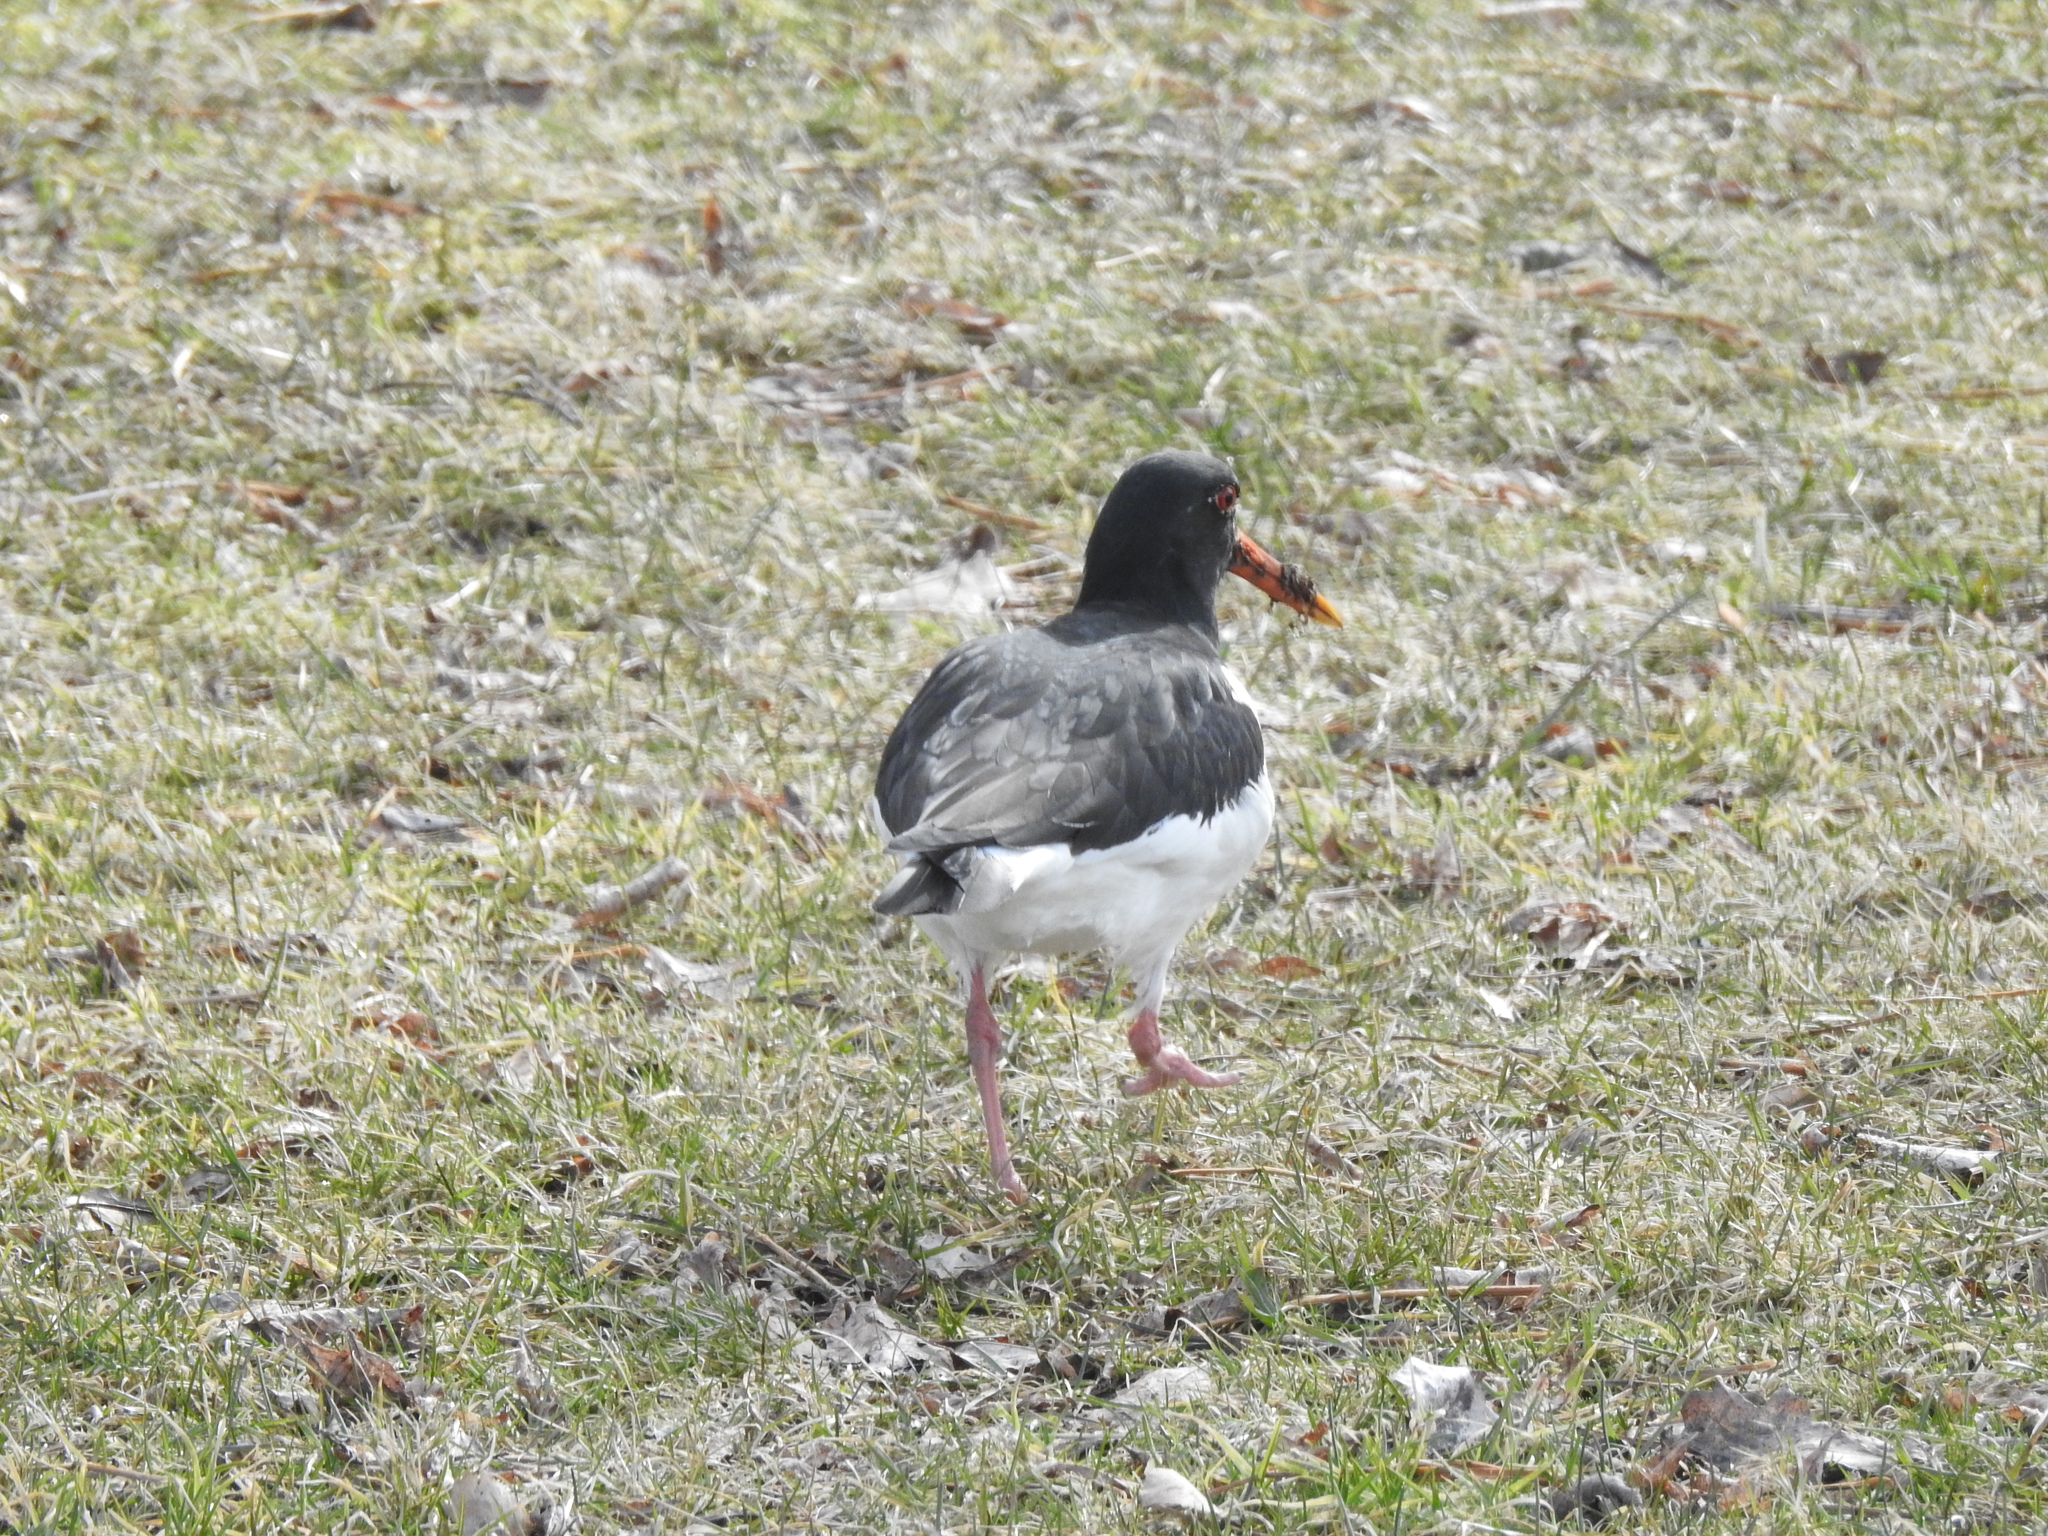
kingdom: Animalia
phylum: Chordata
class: Aves
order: Charadriiformes
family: Haematopodidae
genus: Haematopus
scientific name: Haematopus ostralegus
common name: Eurasian oystercatcher
